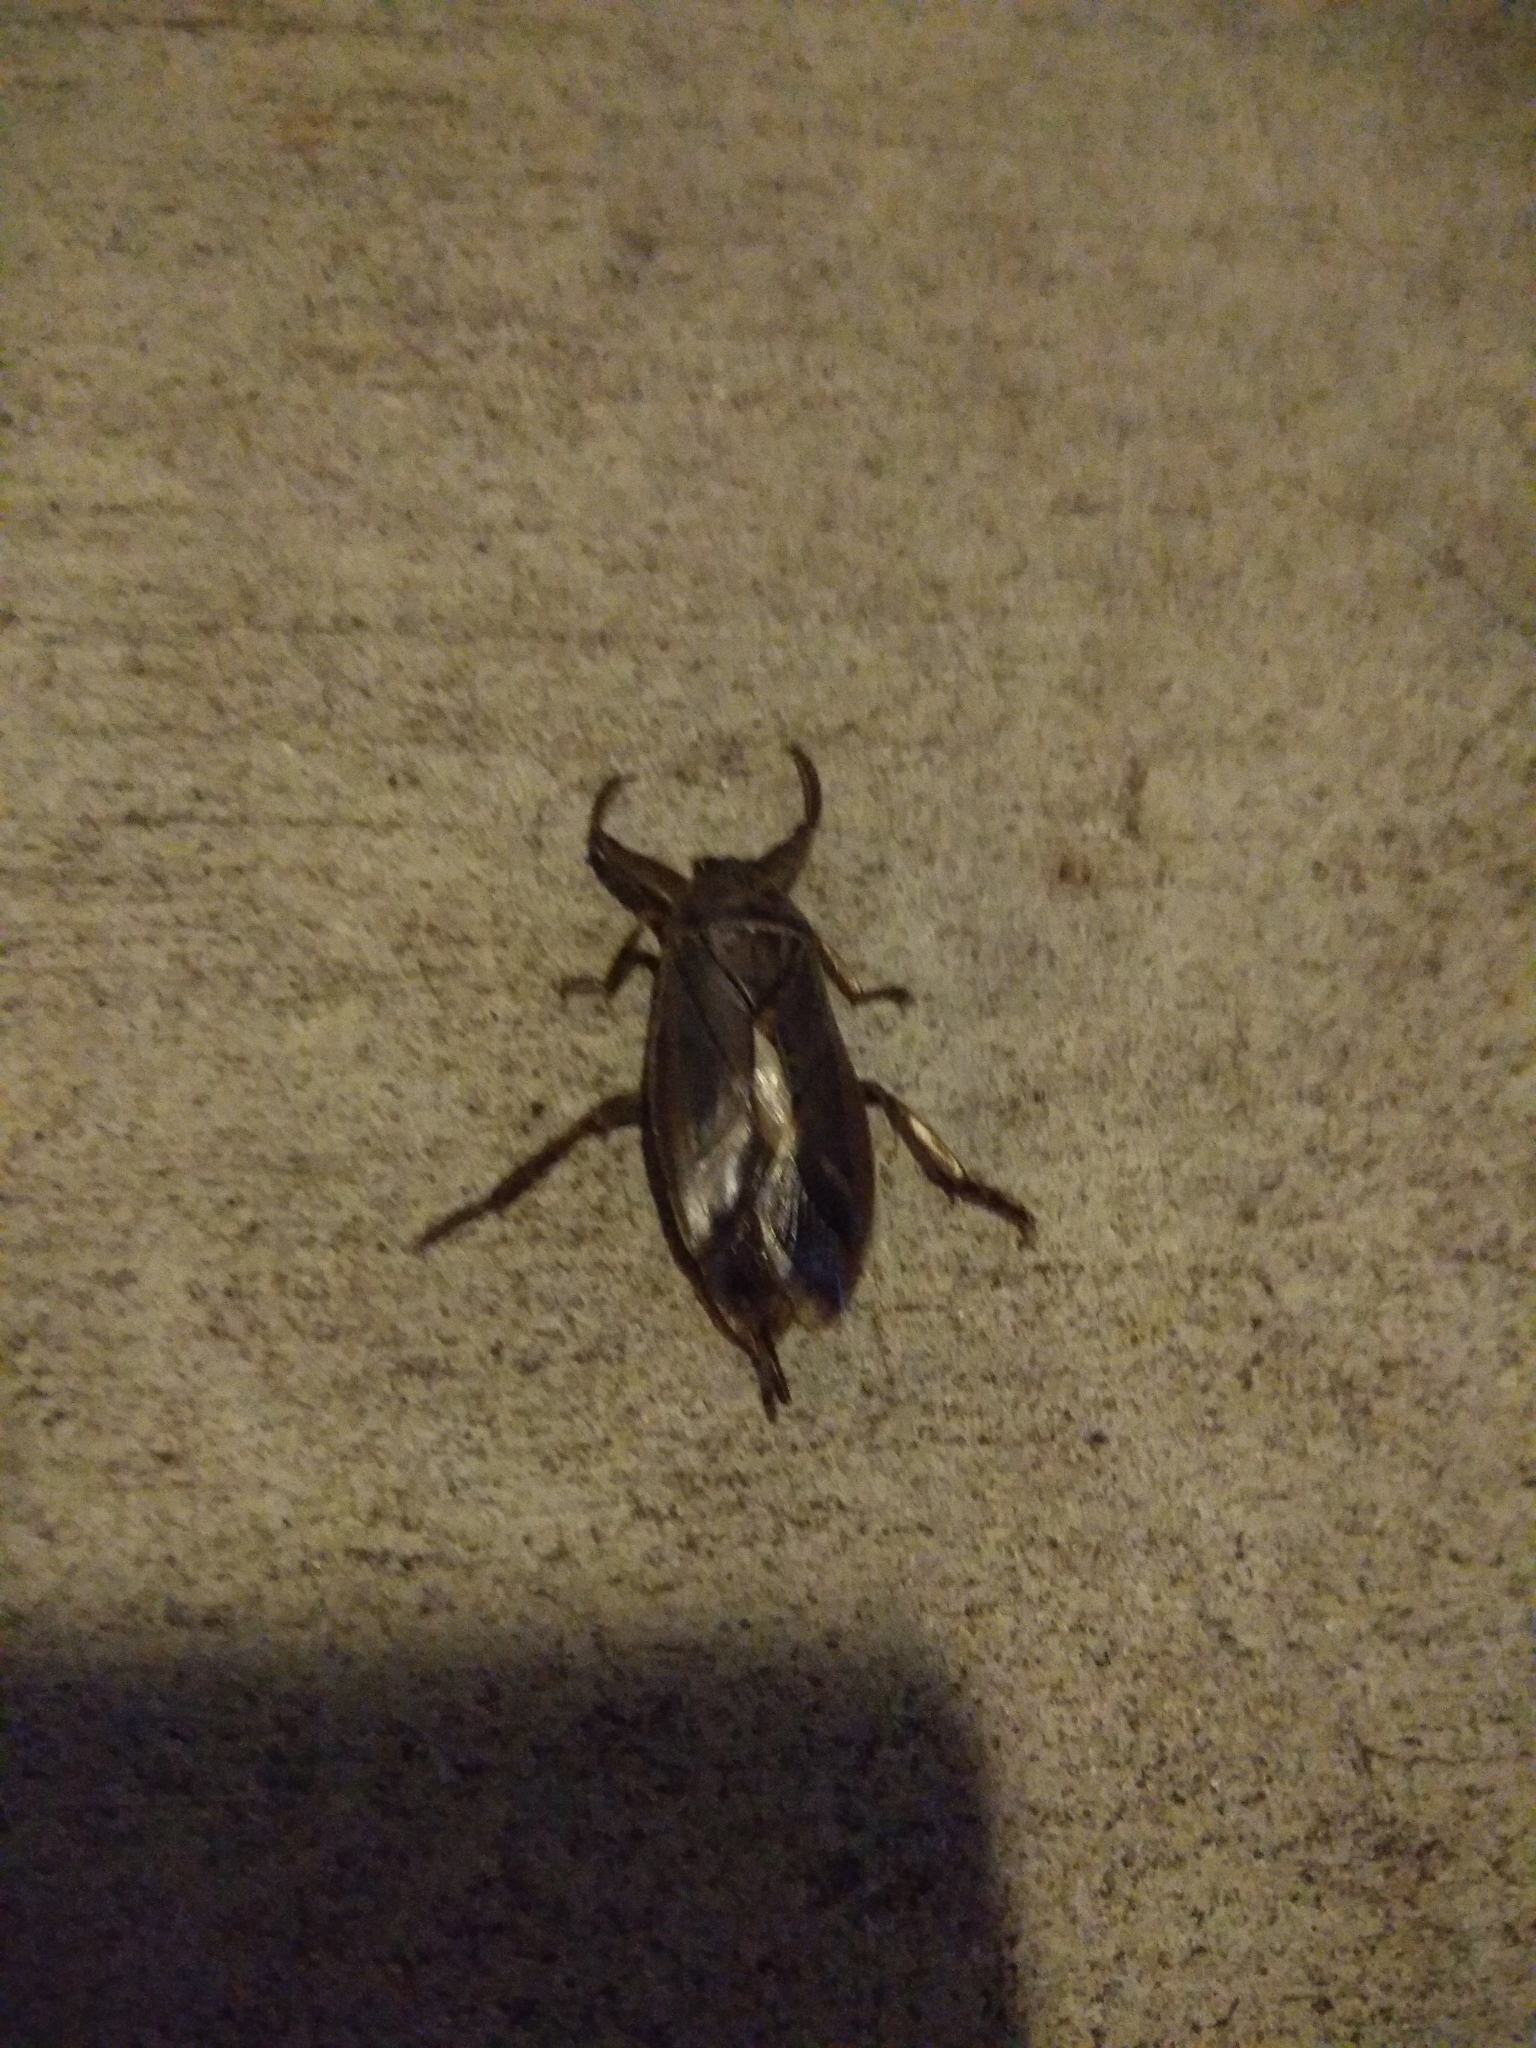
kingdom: Animalia
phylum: Arthropoda
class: Insecta
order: Hemiptera
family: Belostomatidae
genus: Lethocerus
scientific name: Lethocerus uhleri
